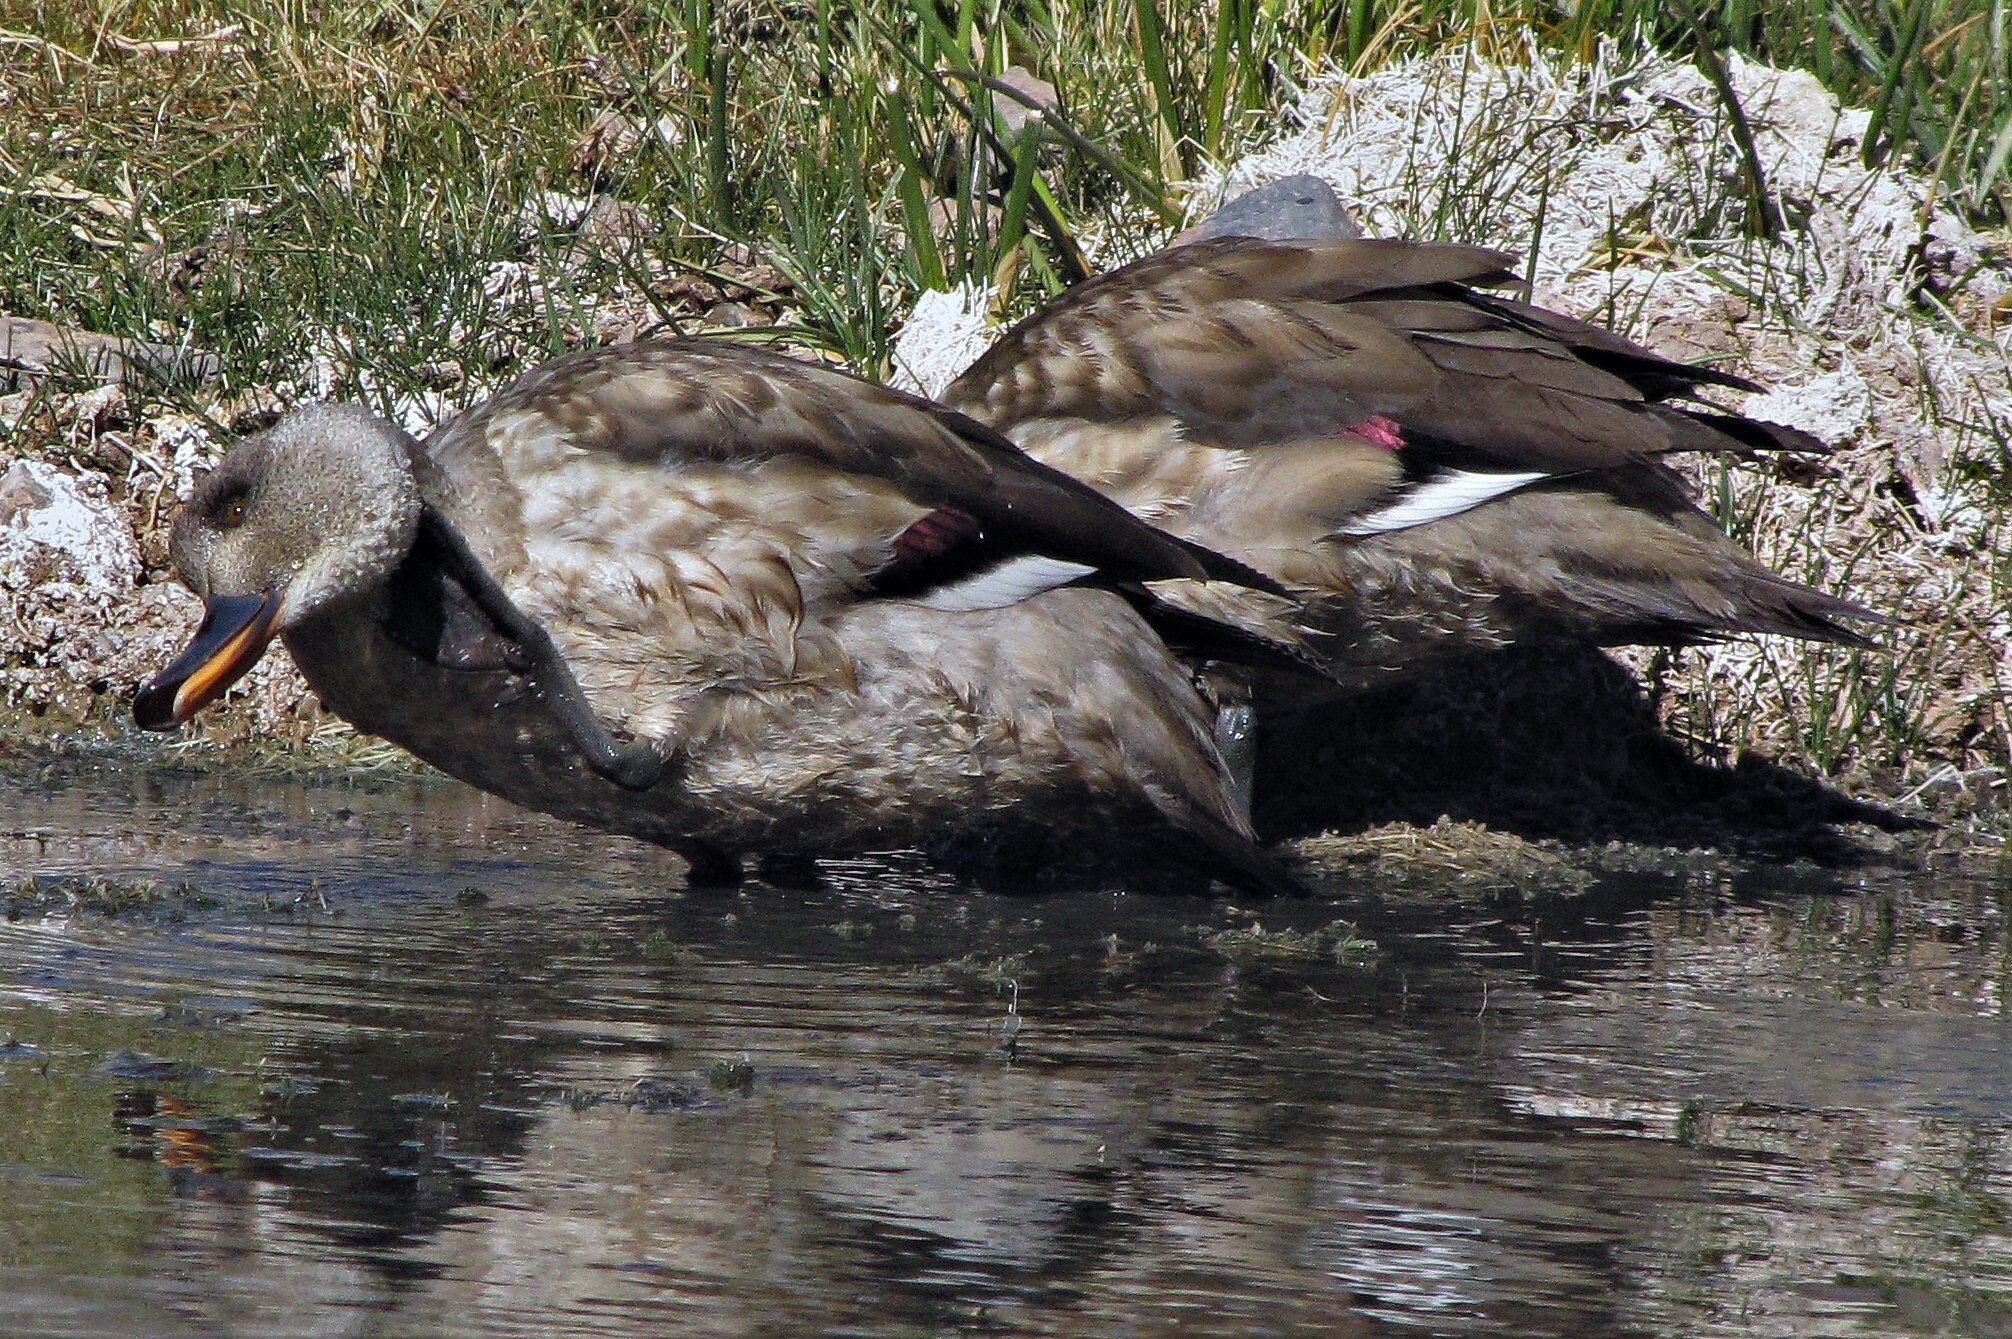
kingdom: Animalia
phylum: Chordata
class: Aves
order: Anseriformes
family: Anatidae
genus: Lophonetta
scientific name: Lophonetta specularioides
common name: Crested duck
